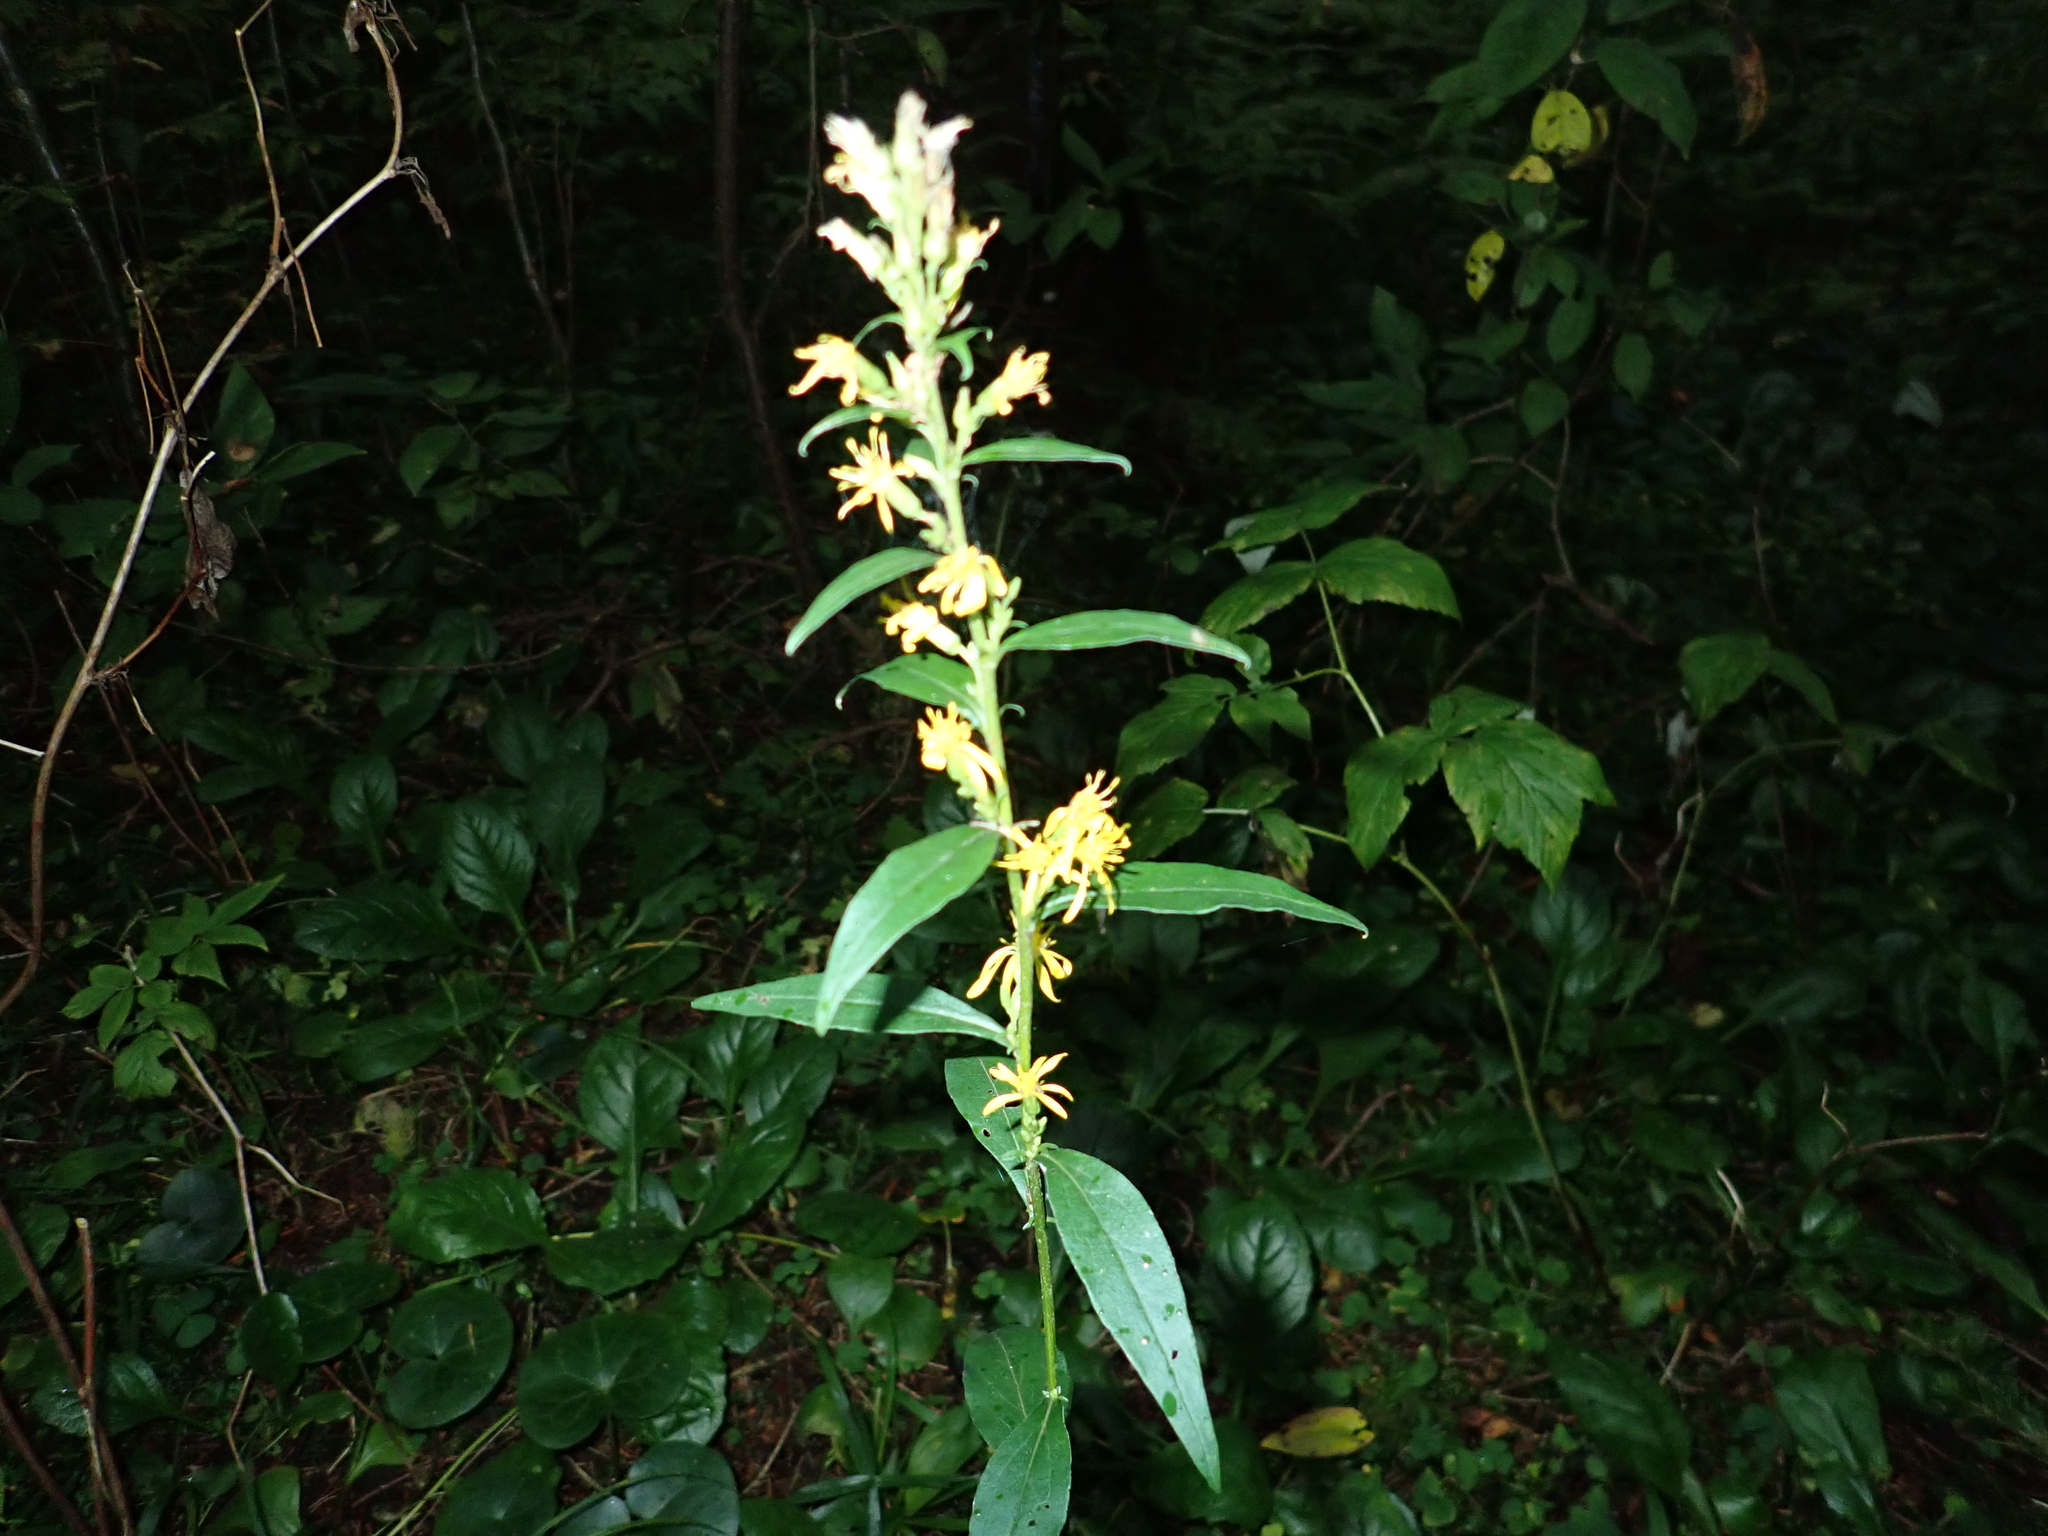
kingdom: Plantae
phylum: Tracheophyta
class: Magnoliopsida
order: Asterales
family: Asteraceae
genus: Solidago
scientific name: Solidago virgaurea
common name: Goldenrod
